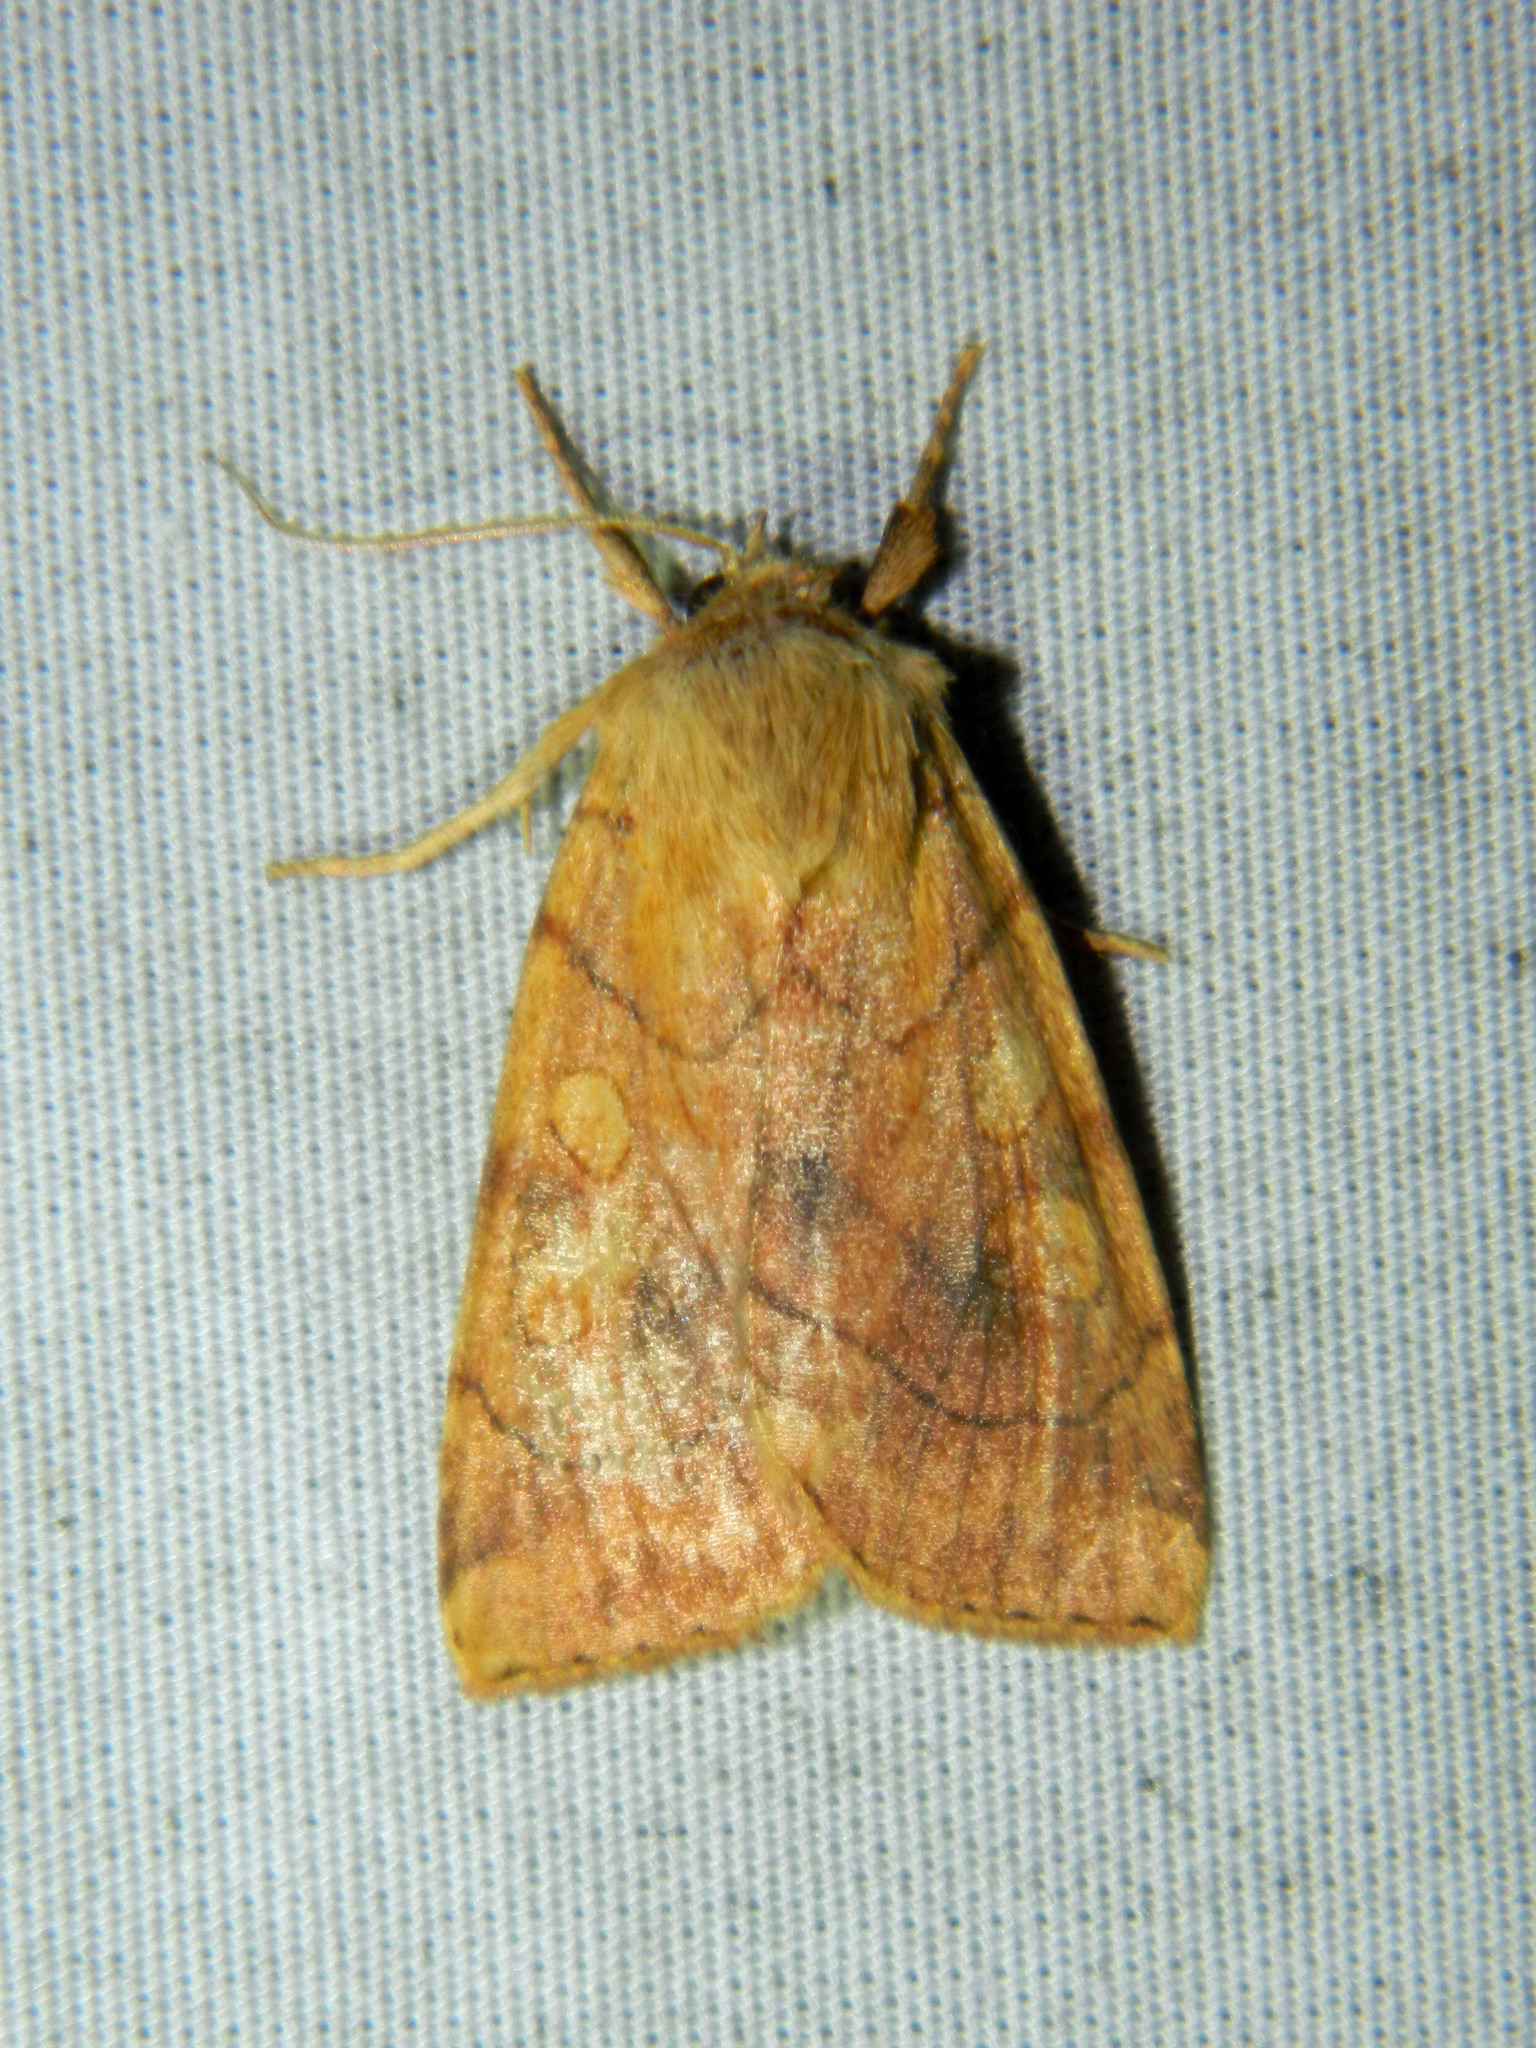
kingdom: Animalia
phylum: Arthropoda
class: Insecta
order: Lepidoptera
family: Noctuidae
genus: Enargia
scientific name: Enargia decolor
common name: Aspen twoleaf tier moth
